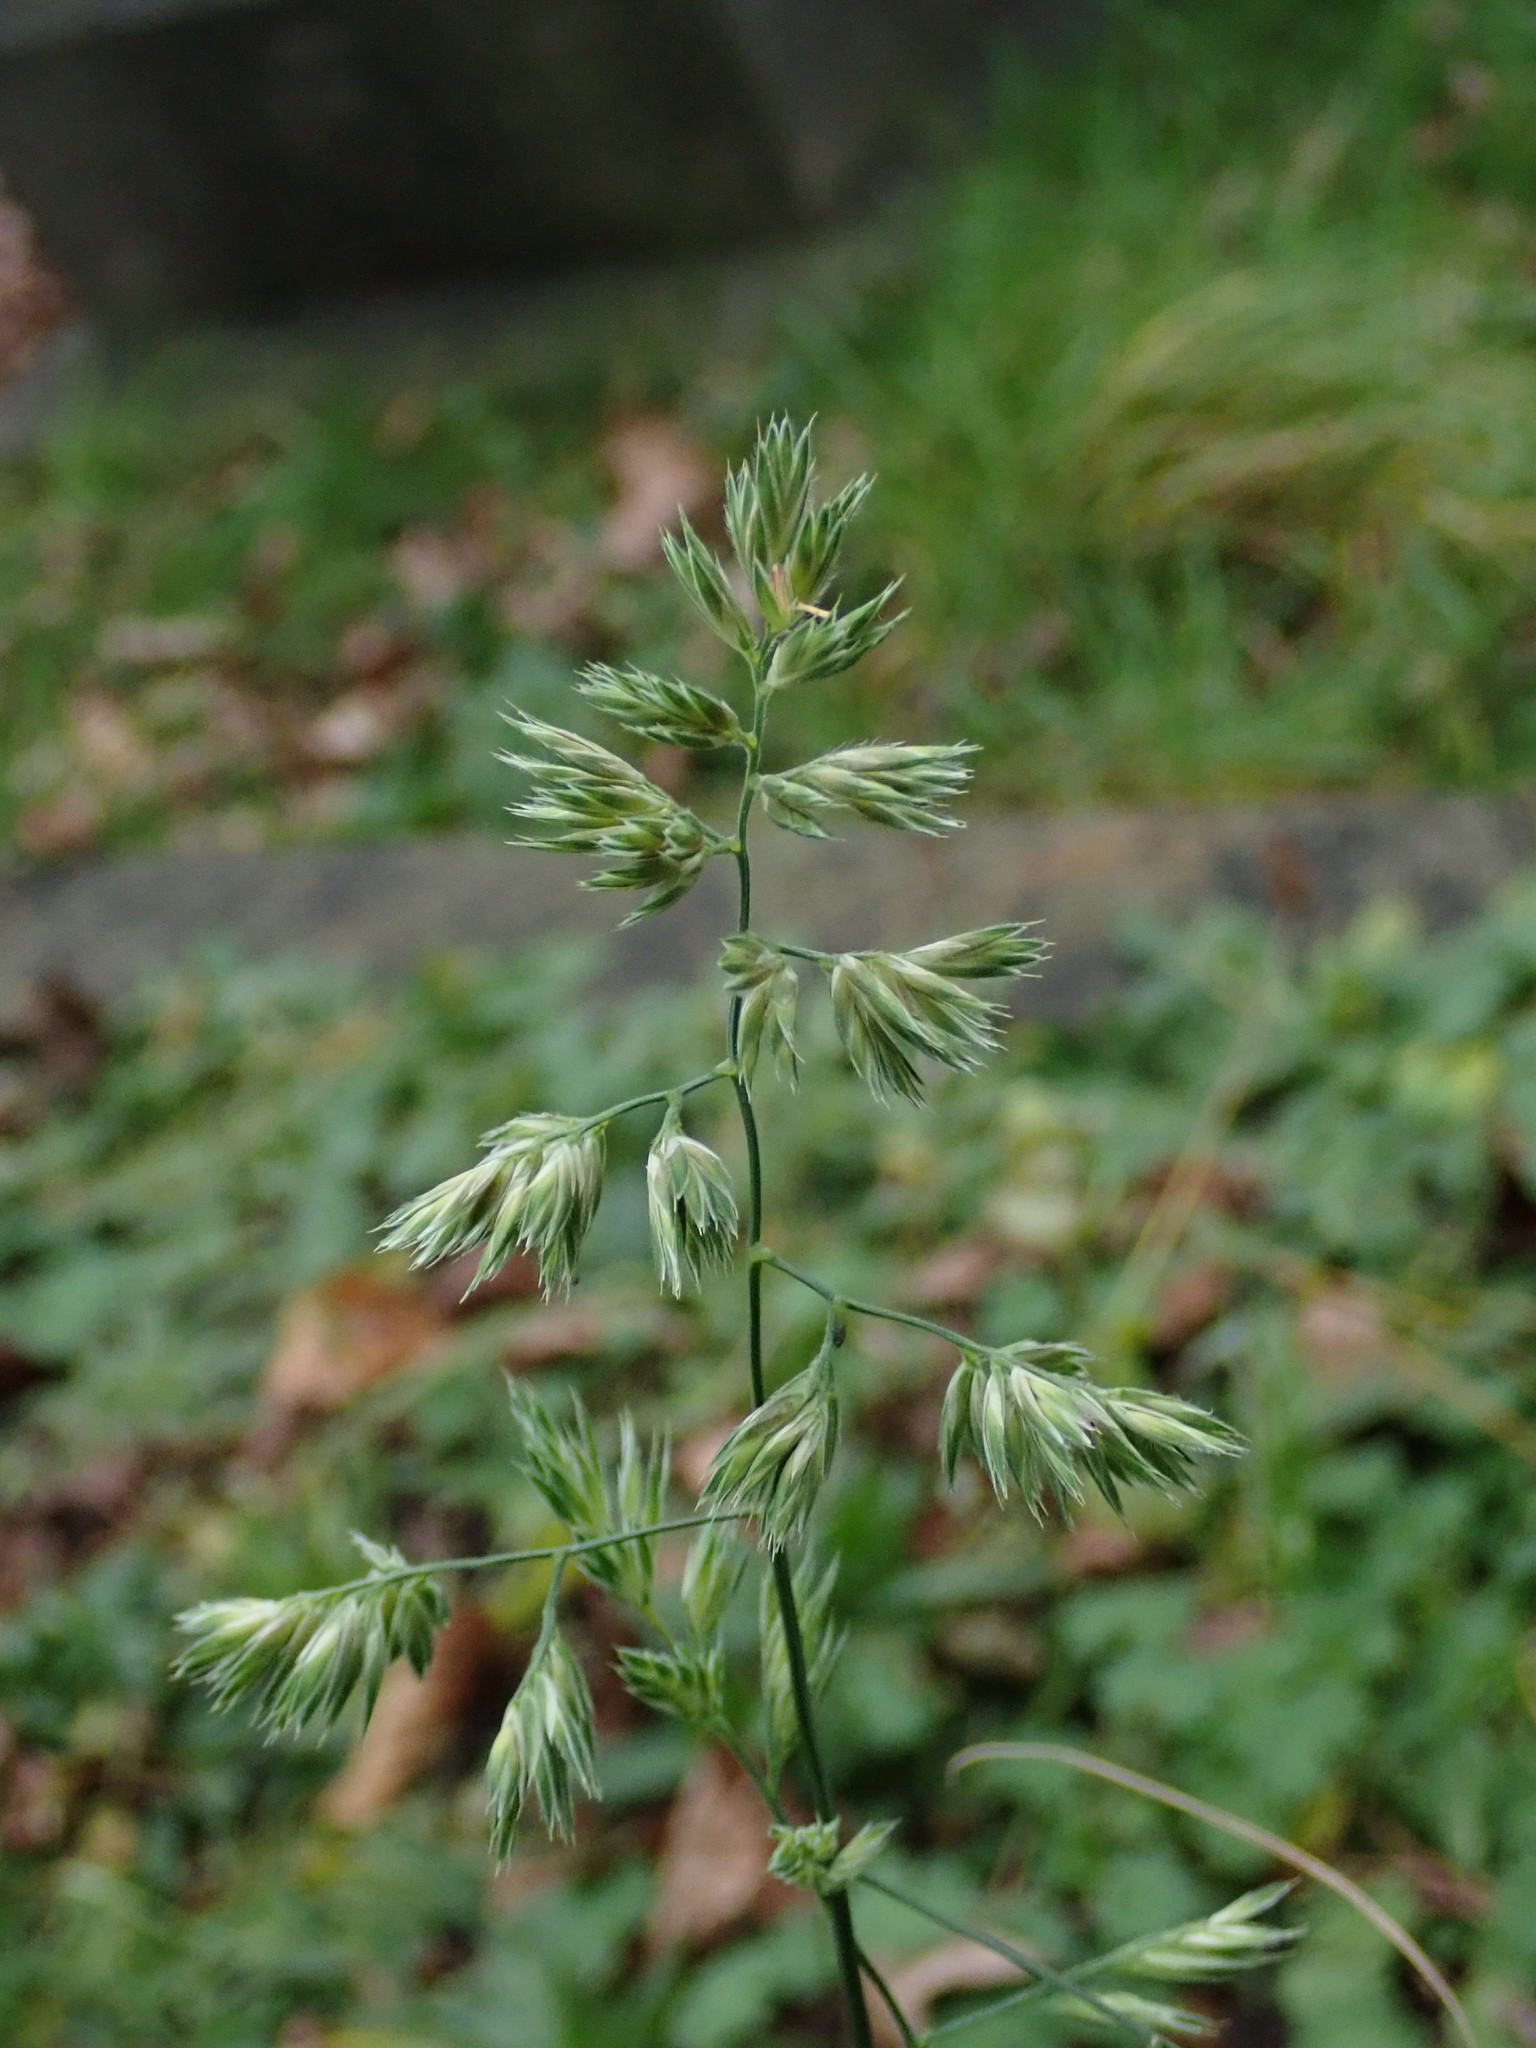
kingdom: Plantae
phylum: Tracheophyta
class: Liliopsida
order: Poales
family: Poaceae
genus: Dactylis
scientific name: Dactylis glomerata
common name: Orchardgrass
